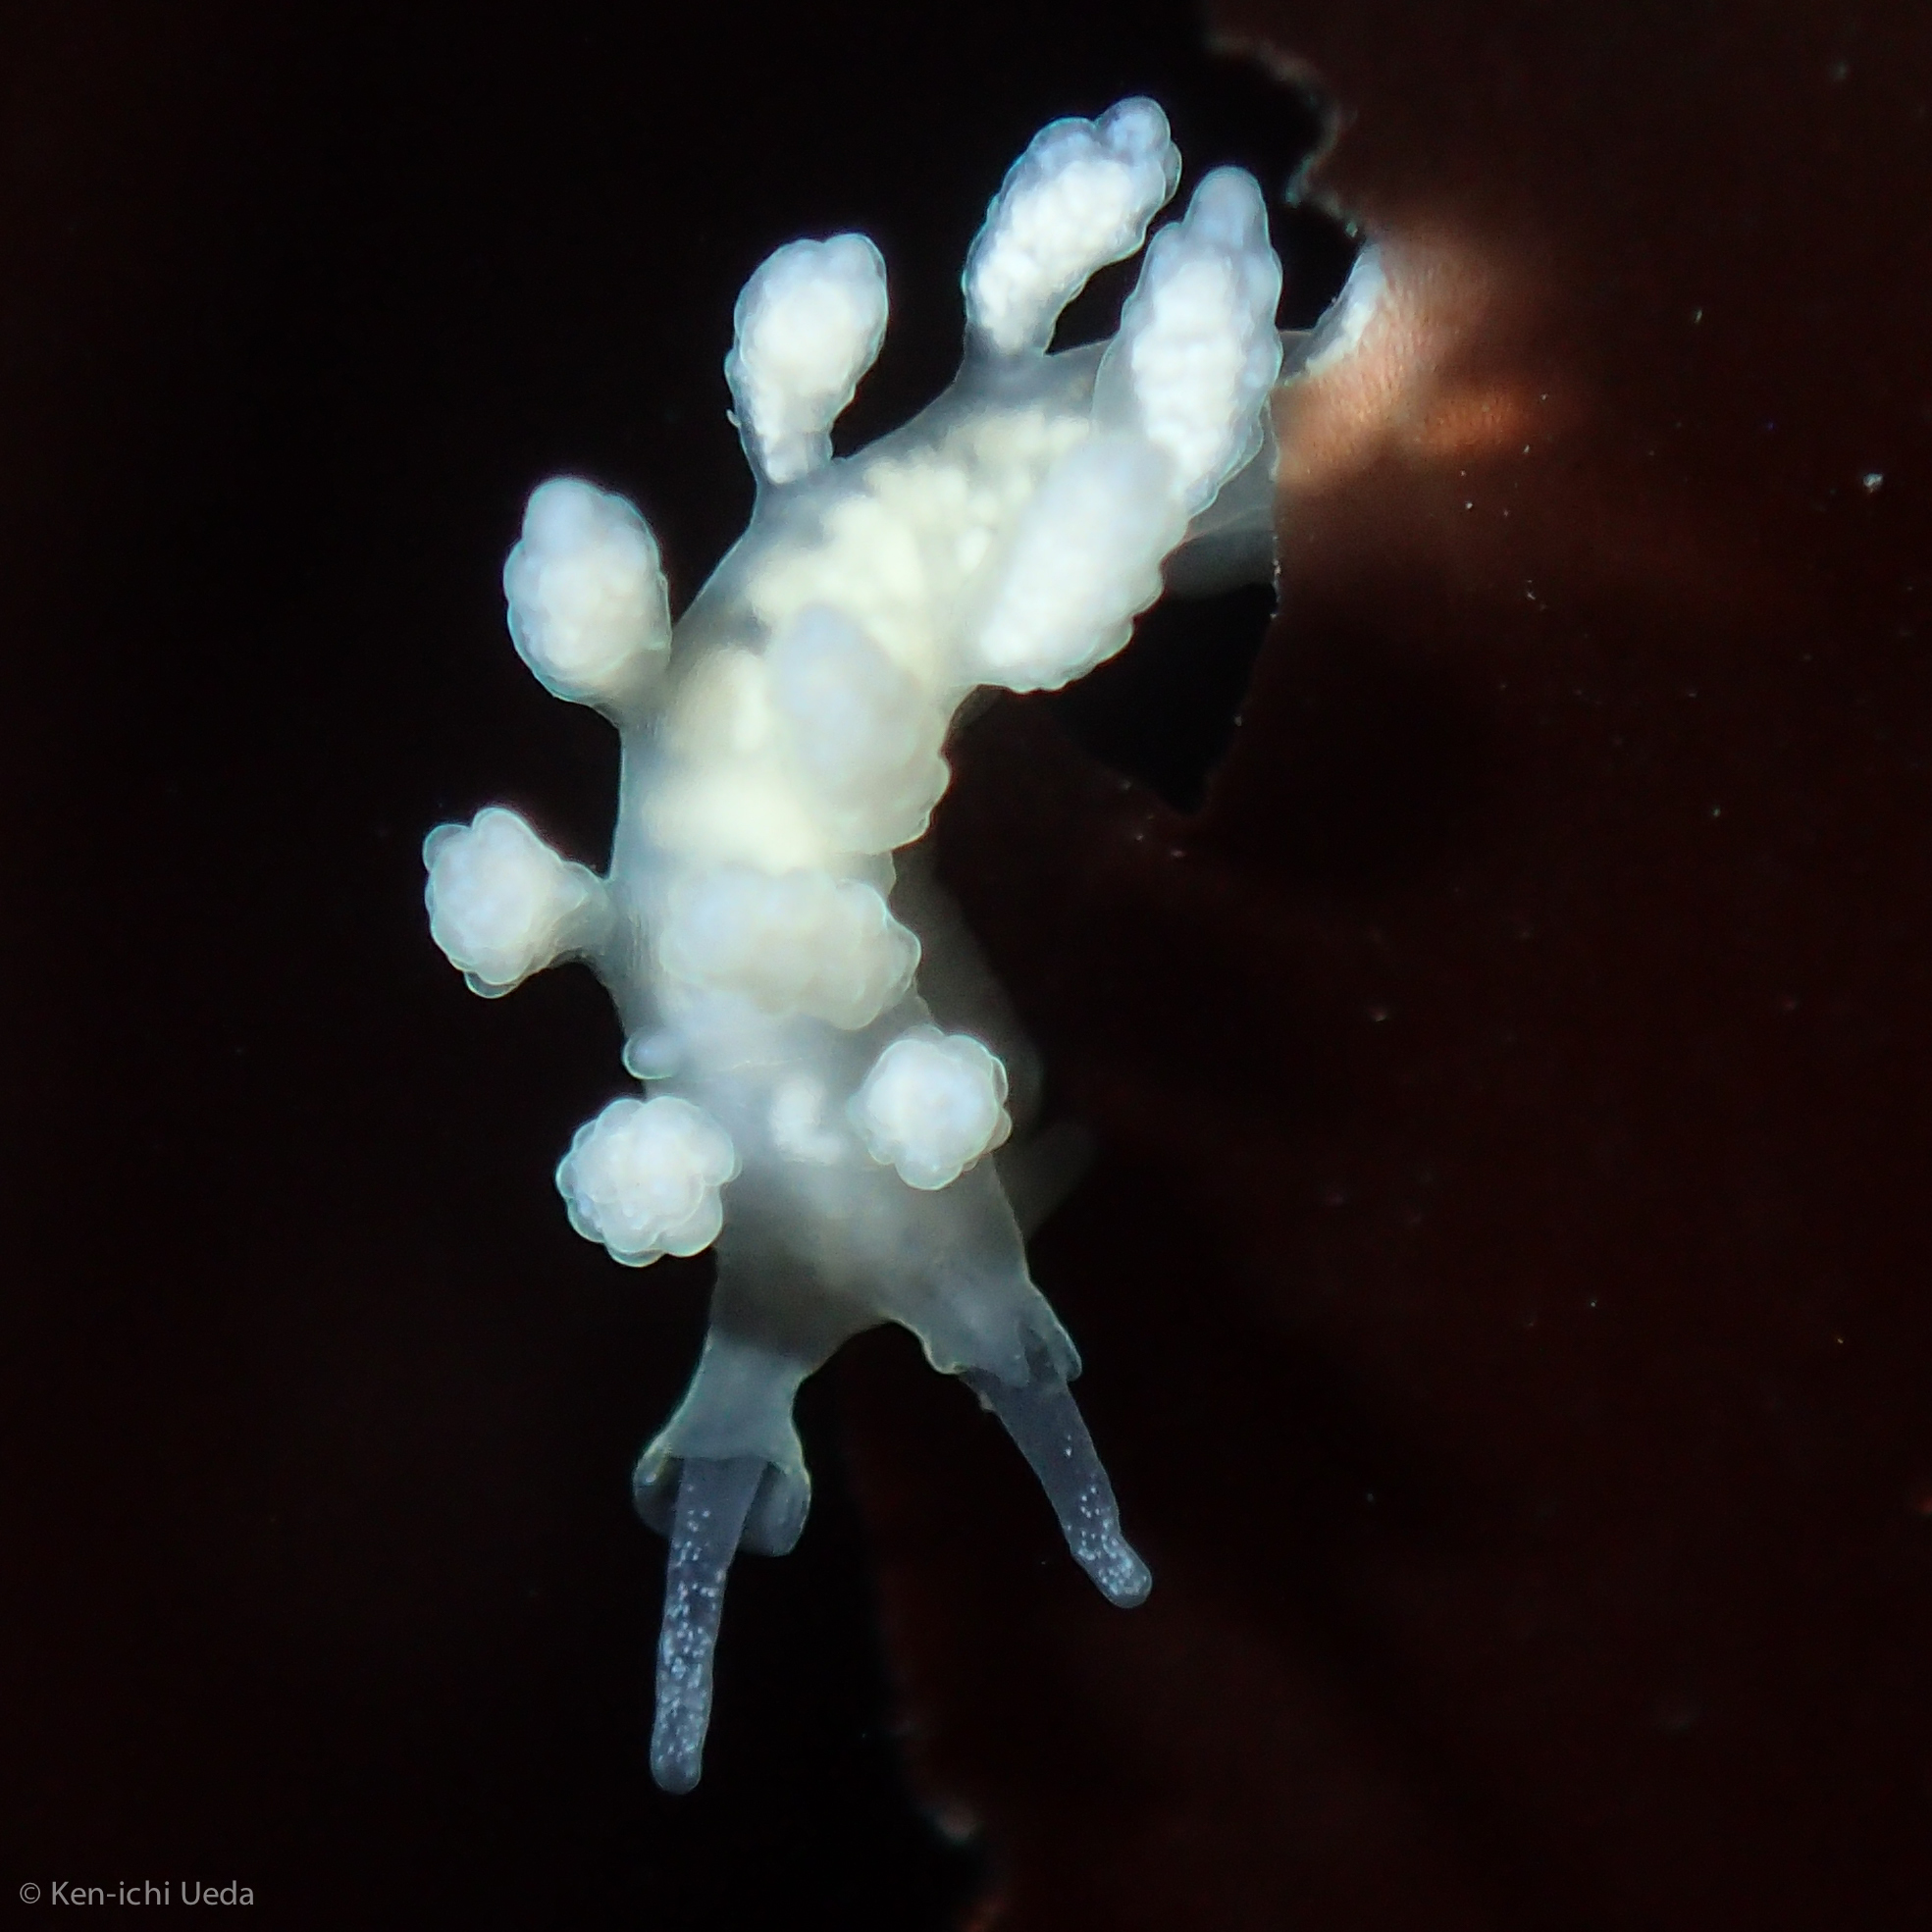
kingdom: Animalia
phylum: Mollusca
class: Gastropoda
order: Nudibranchia
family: Dotidae
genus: Doto
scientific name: Doto amyra
